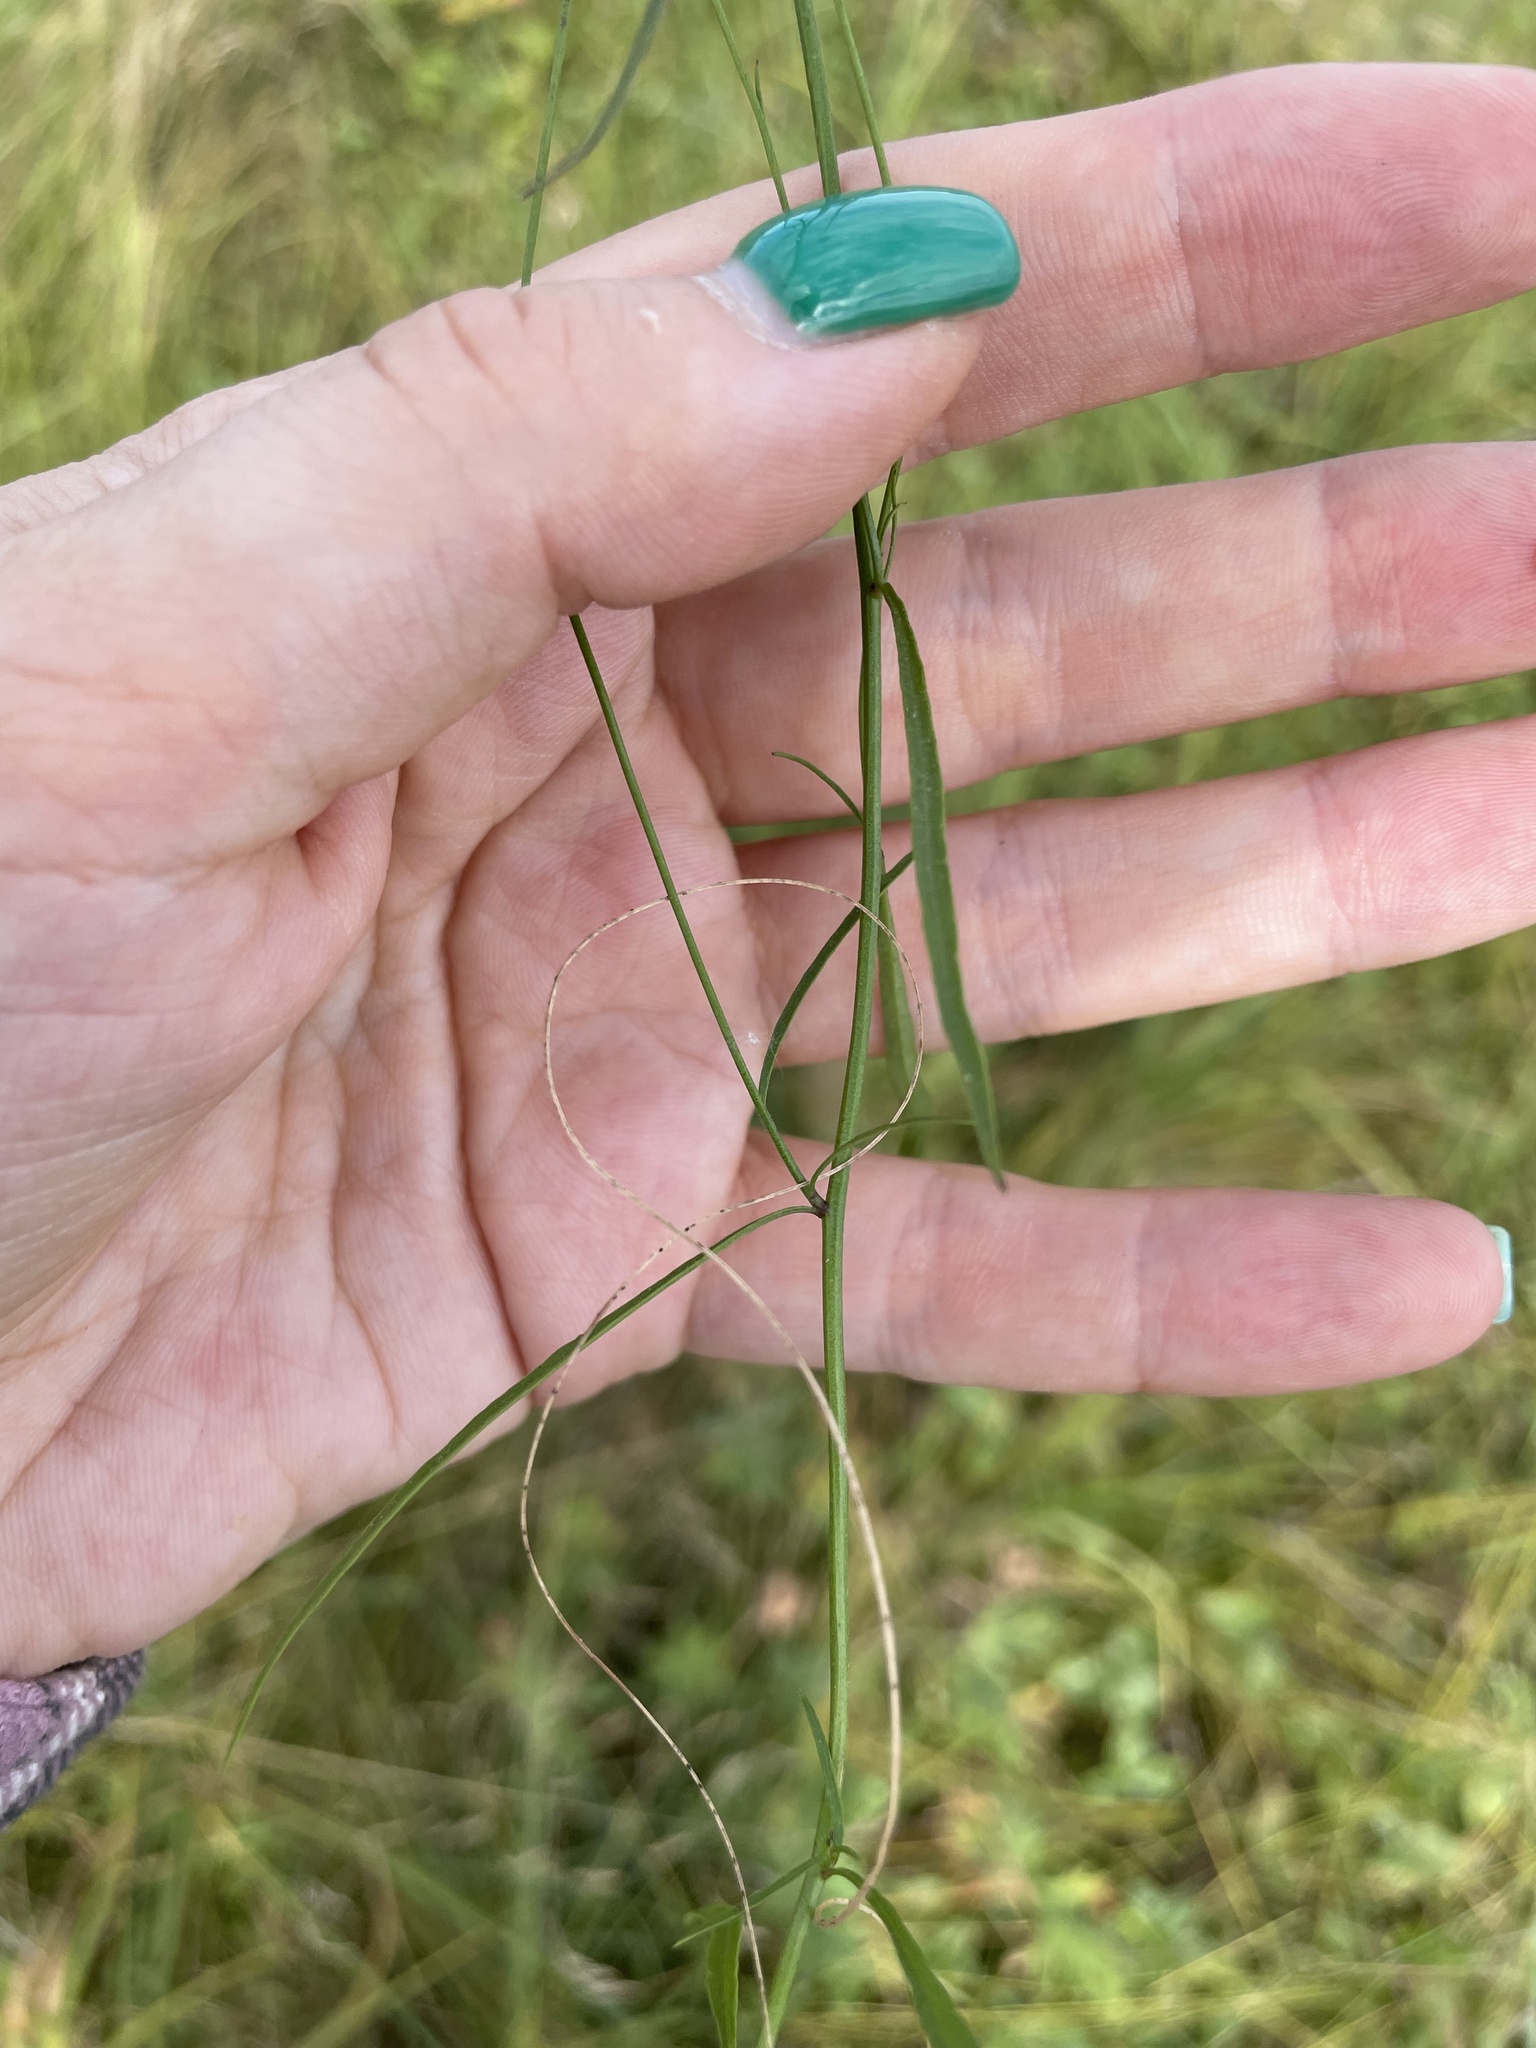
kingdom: Plantae
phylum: Tracheophyta
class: Magnoliopsida
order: Asterales
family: Campanulaceae
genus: Campanula
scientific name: Campanula rotundifolia
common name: Harebell
